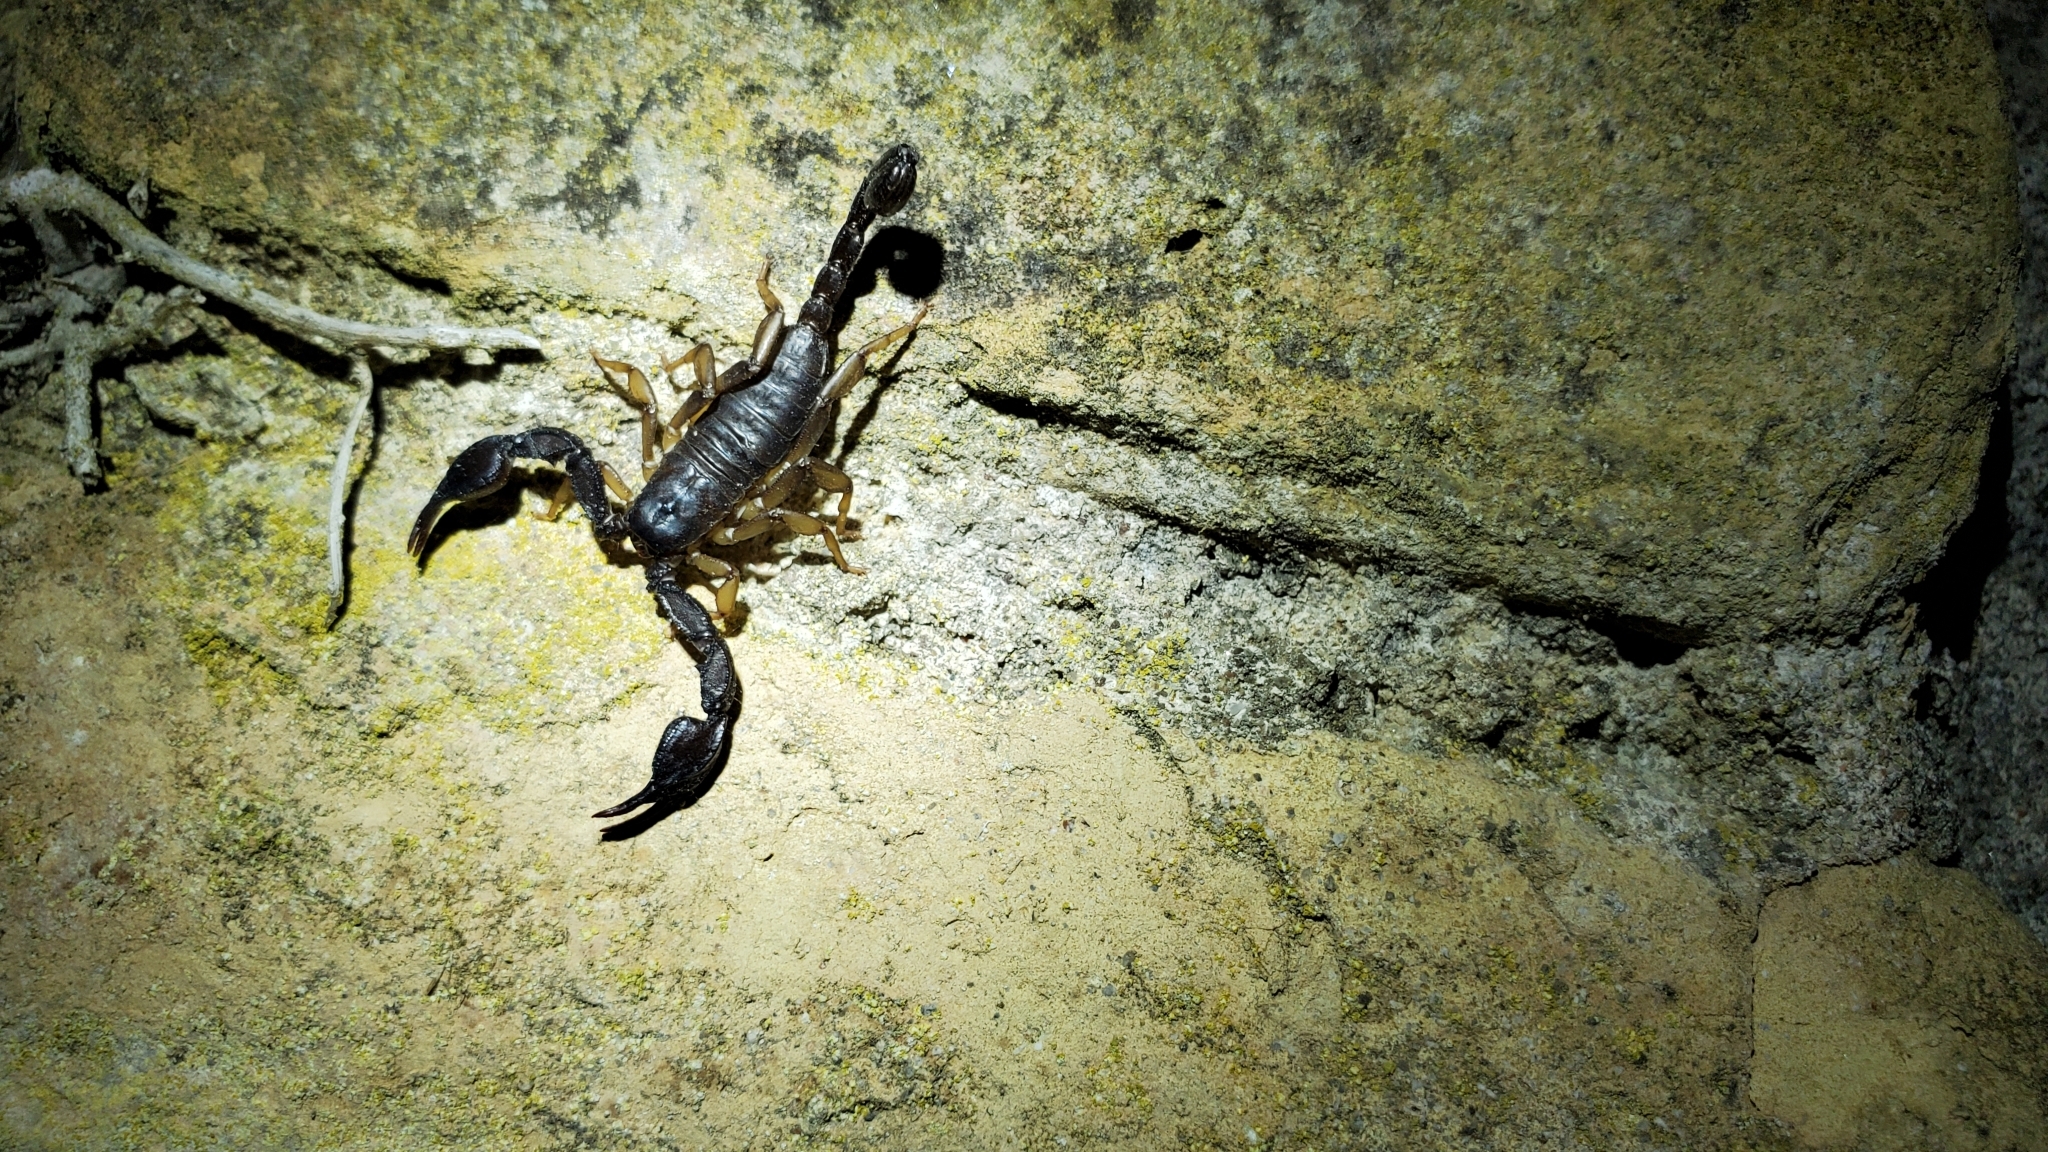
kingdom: Animalia
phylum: Arthropoda
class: Arachnida
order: Scorpiones
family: Euscorpiidae
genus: Euscorpius
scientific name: Euscorpius italicus
